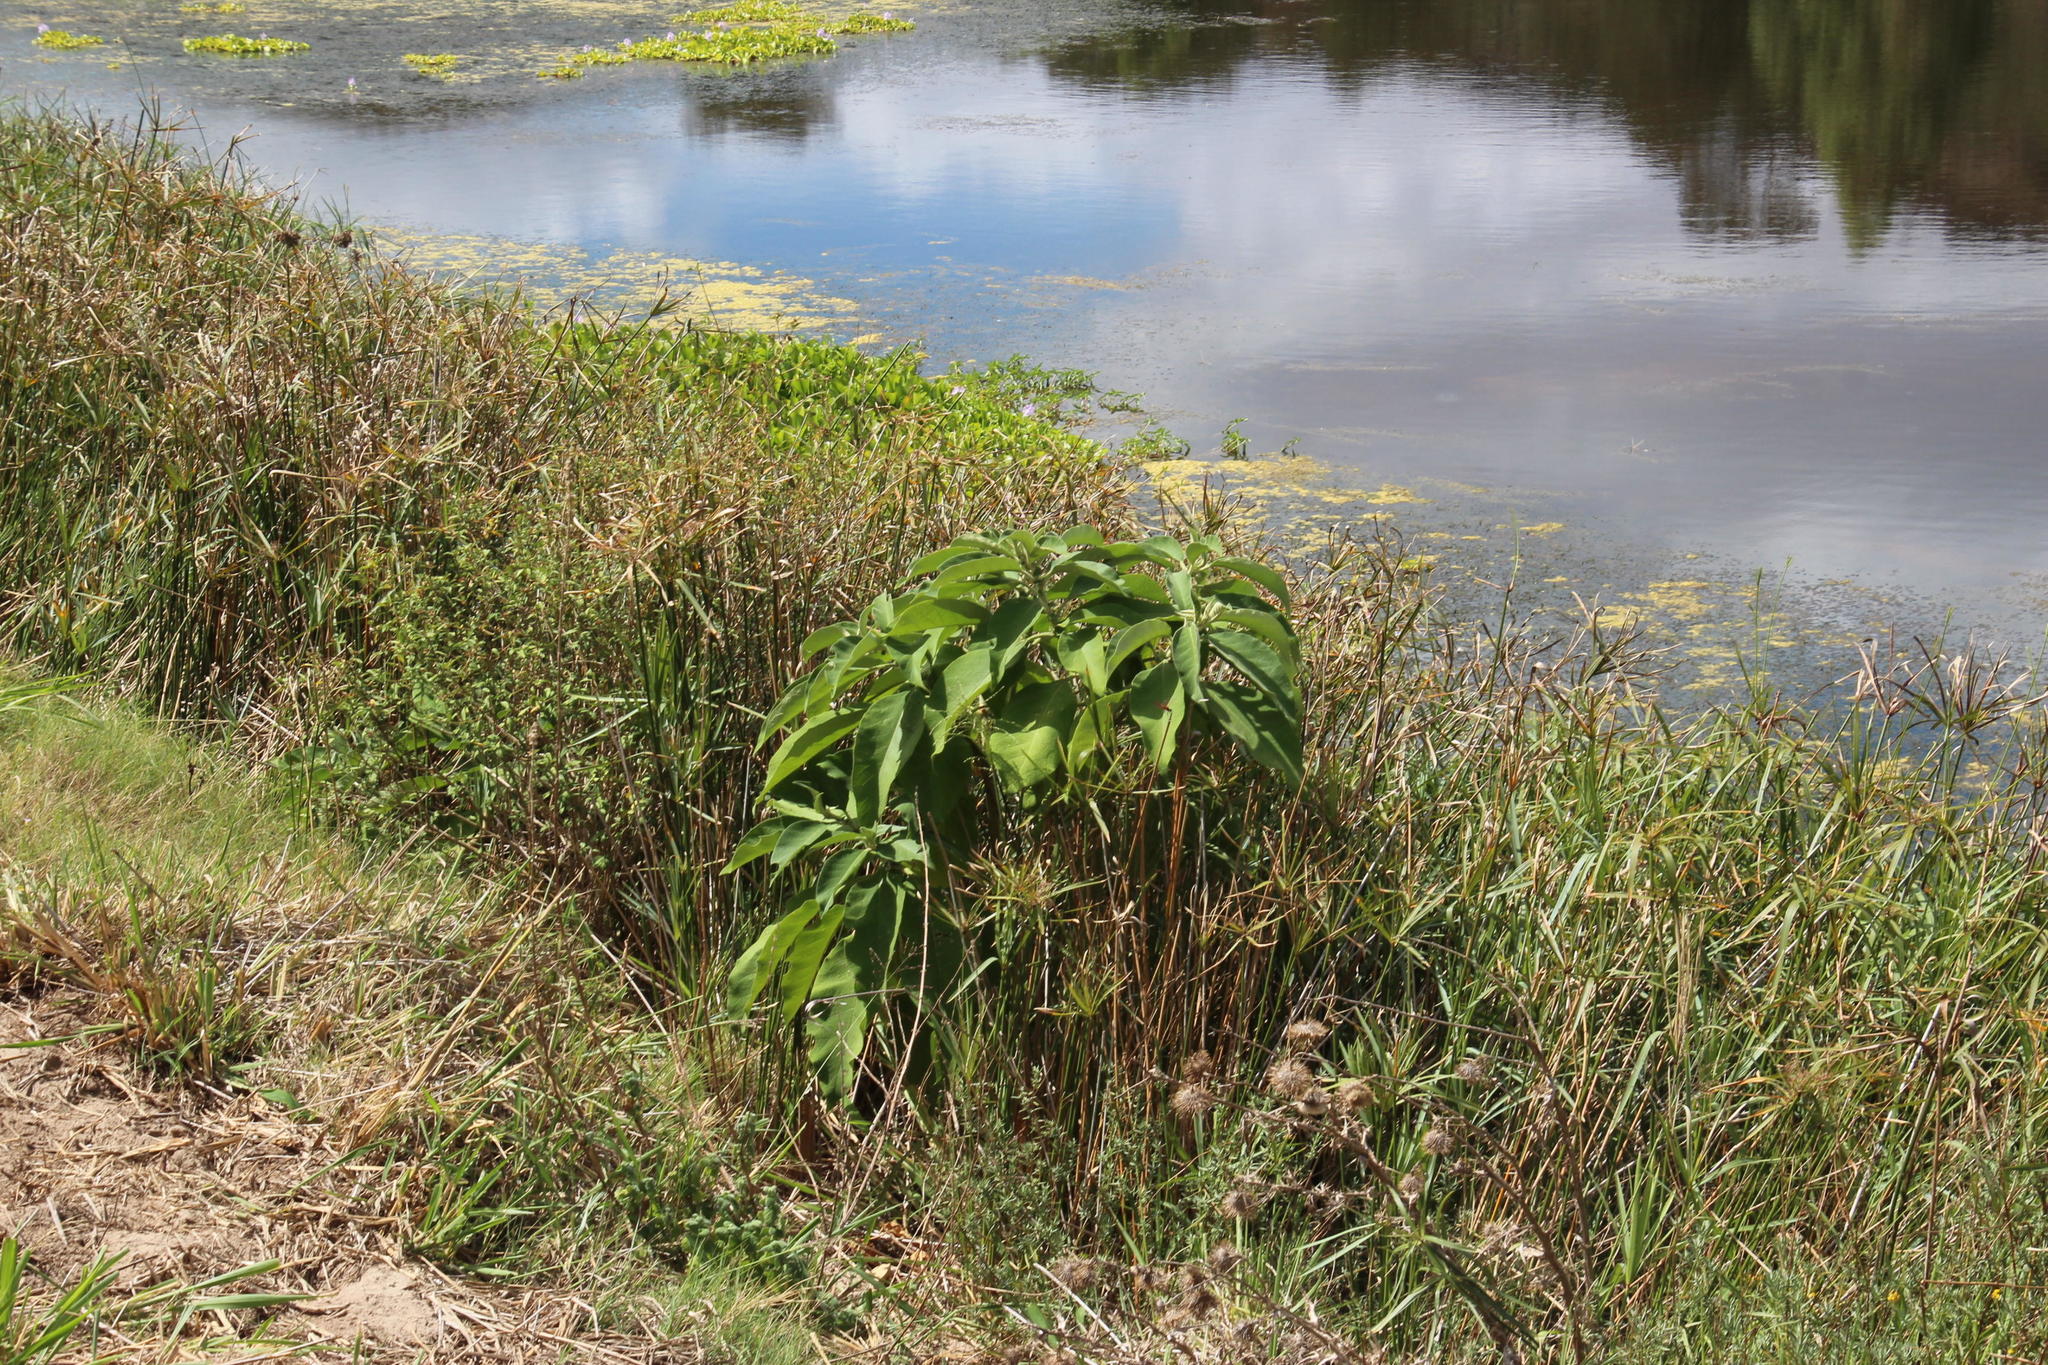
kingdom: Plantae
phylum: Tracheophyta
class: Magnoliopsida
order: Solanales
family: Solanaceae
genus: Solanum
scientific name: Solanum mauritianum
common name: Earleaf nightshade
